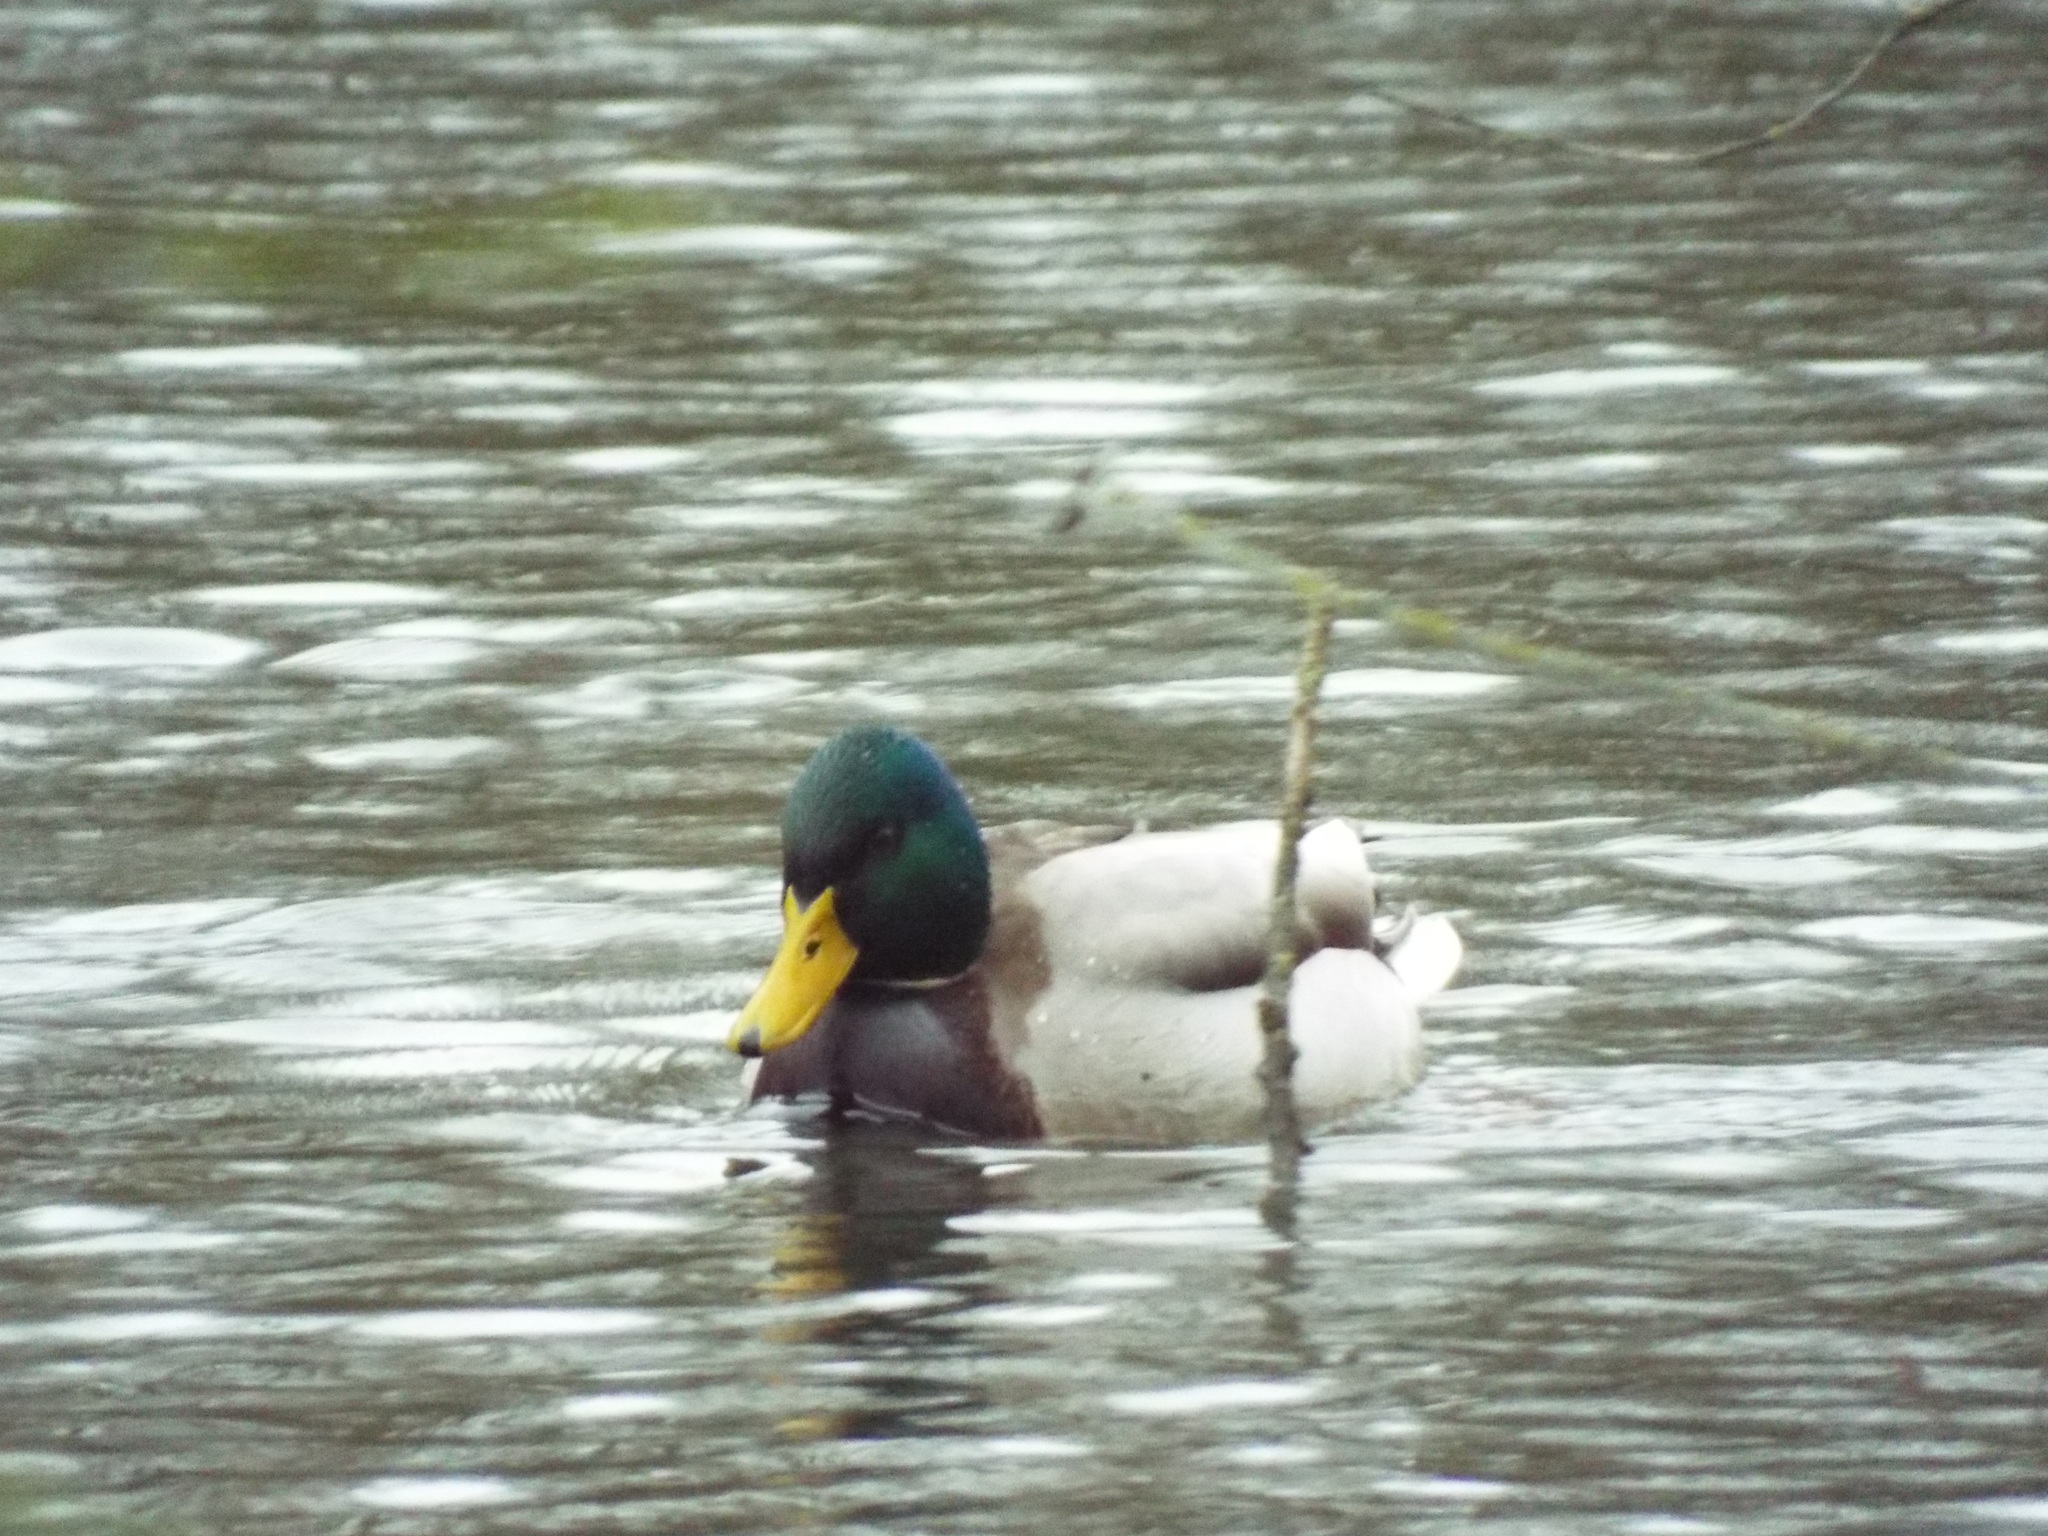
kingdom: Animalia
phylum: Chordata
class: Aves
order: Anseriformes
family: Anatidae
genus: Anas
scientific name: Anas platyrhynchos
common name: Mallard
